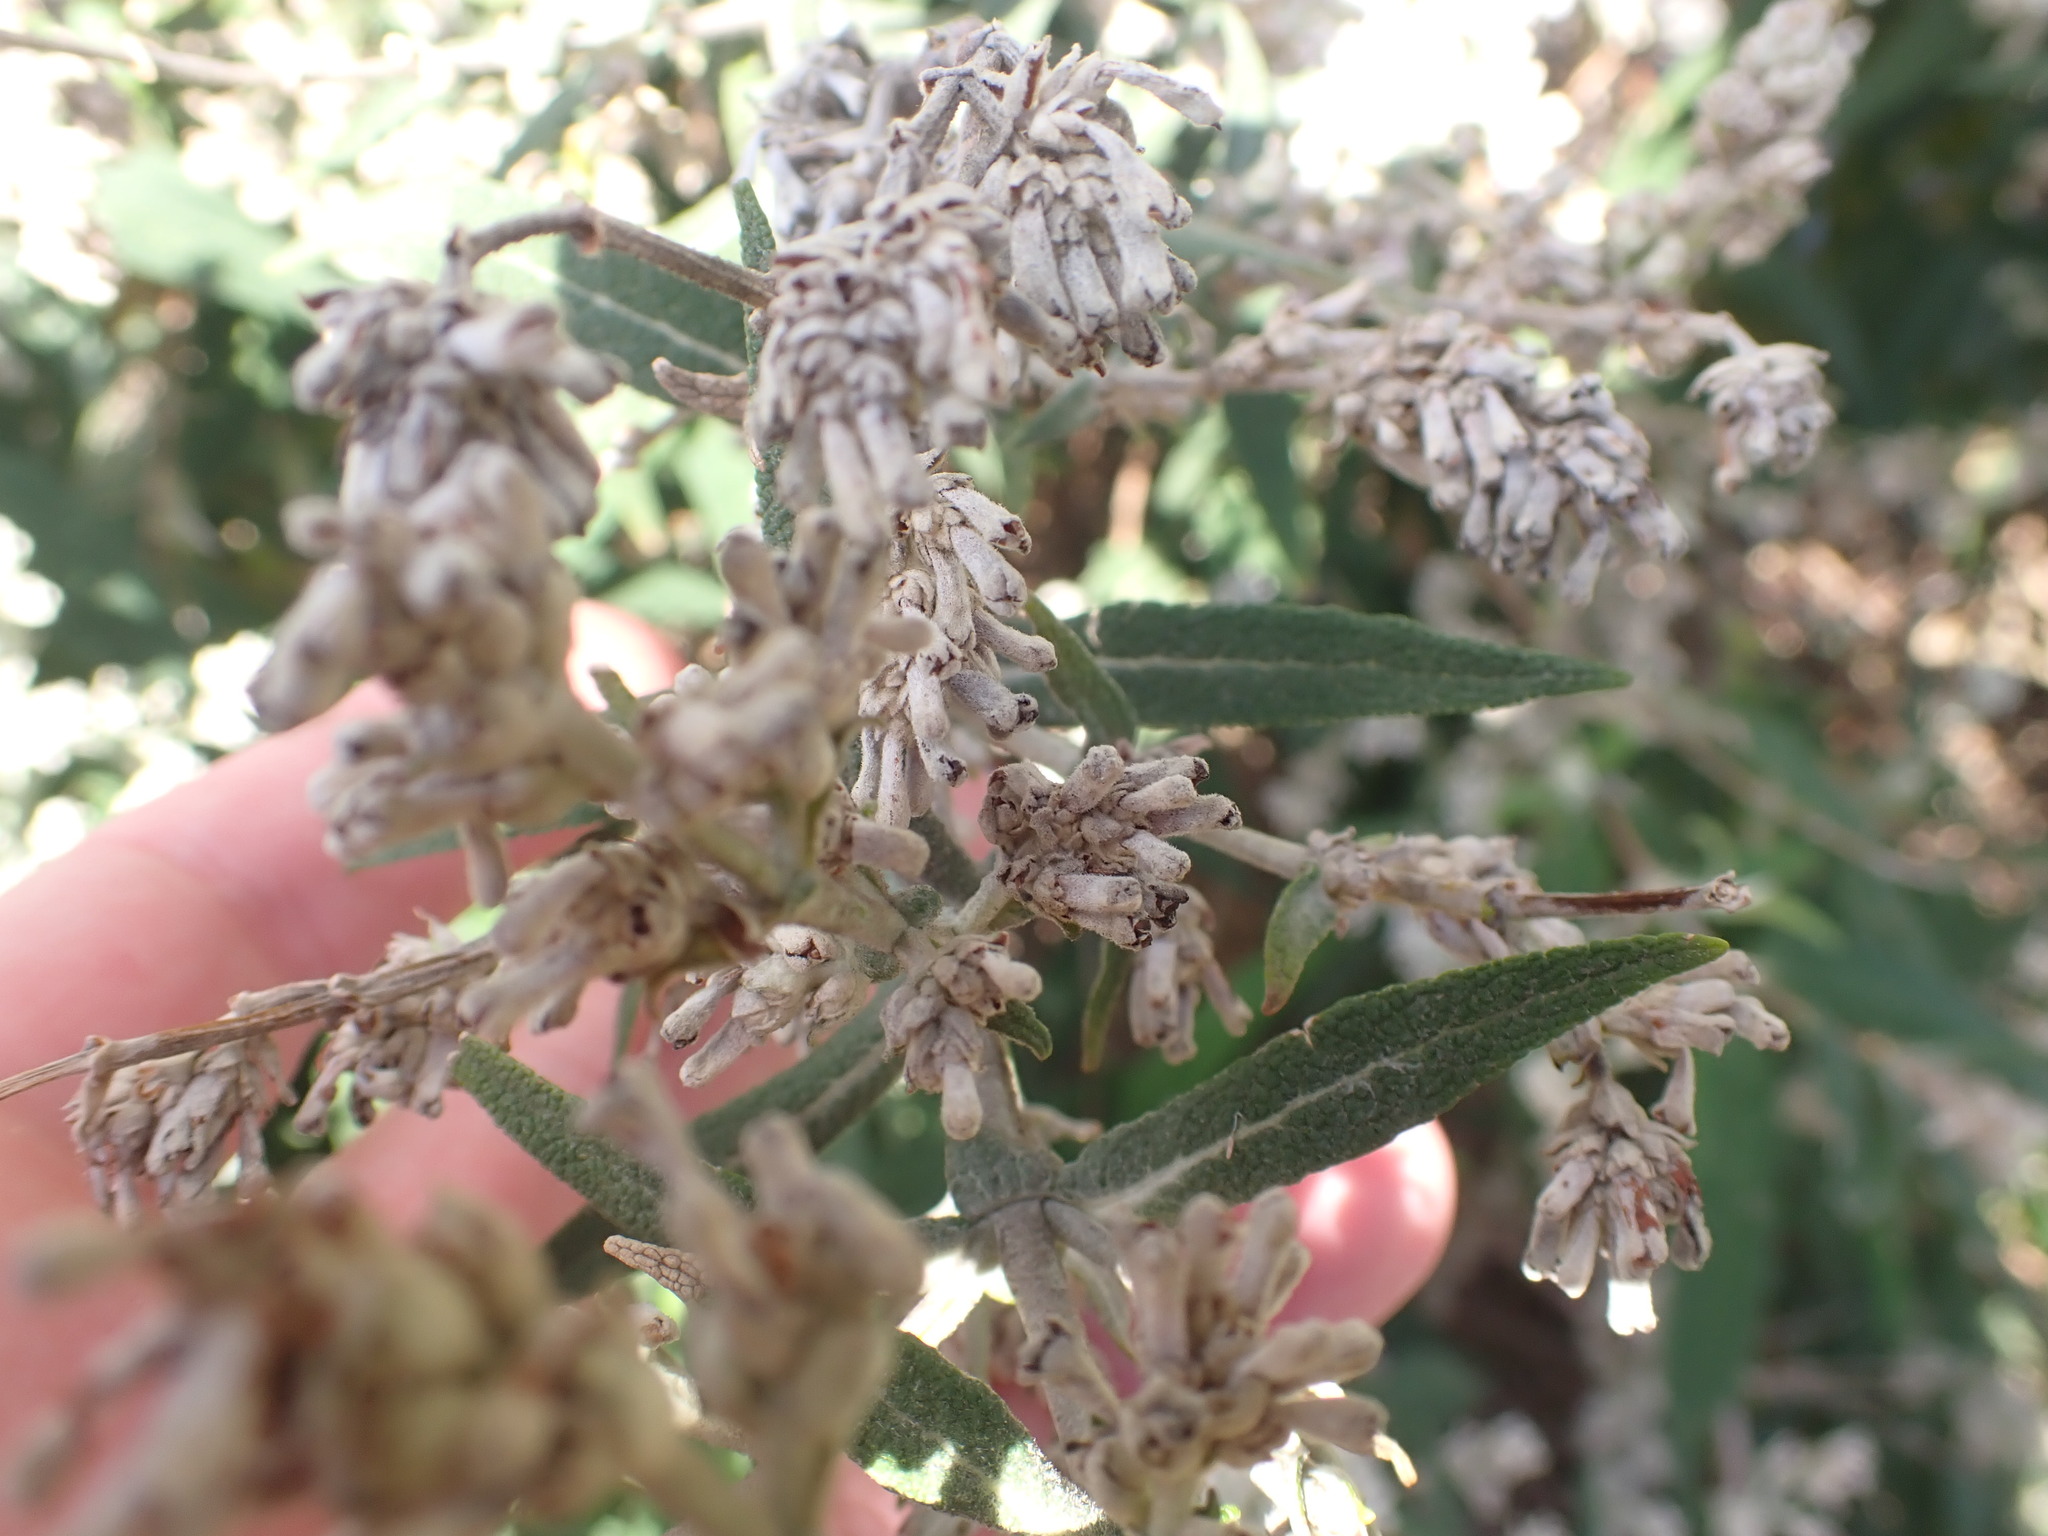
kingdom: Plantae
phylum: Tracheophyta
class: Magnoliopsida
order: Lamiales
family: Scrophulariaceae
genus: Buddleja
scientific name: Buddleja salviifolia
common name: Sagewood
